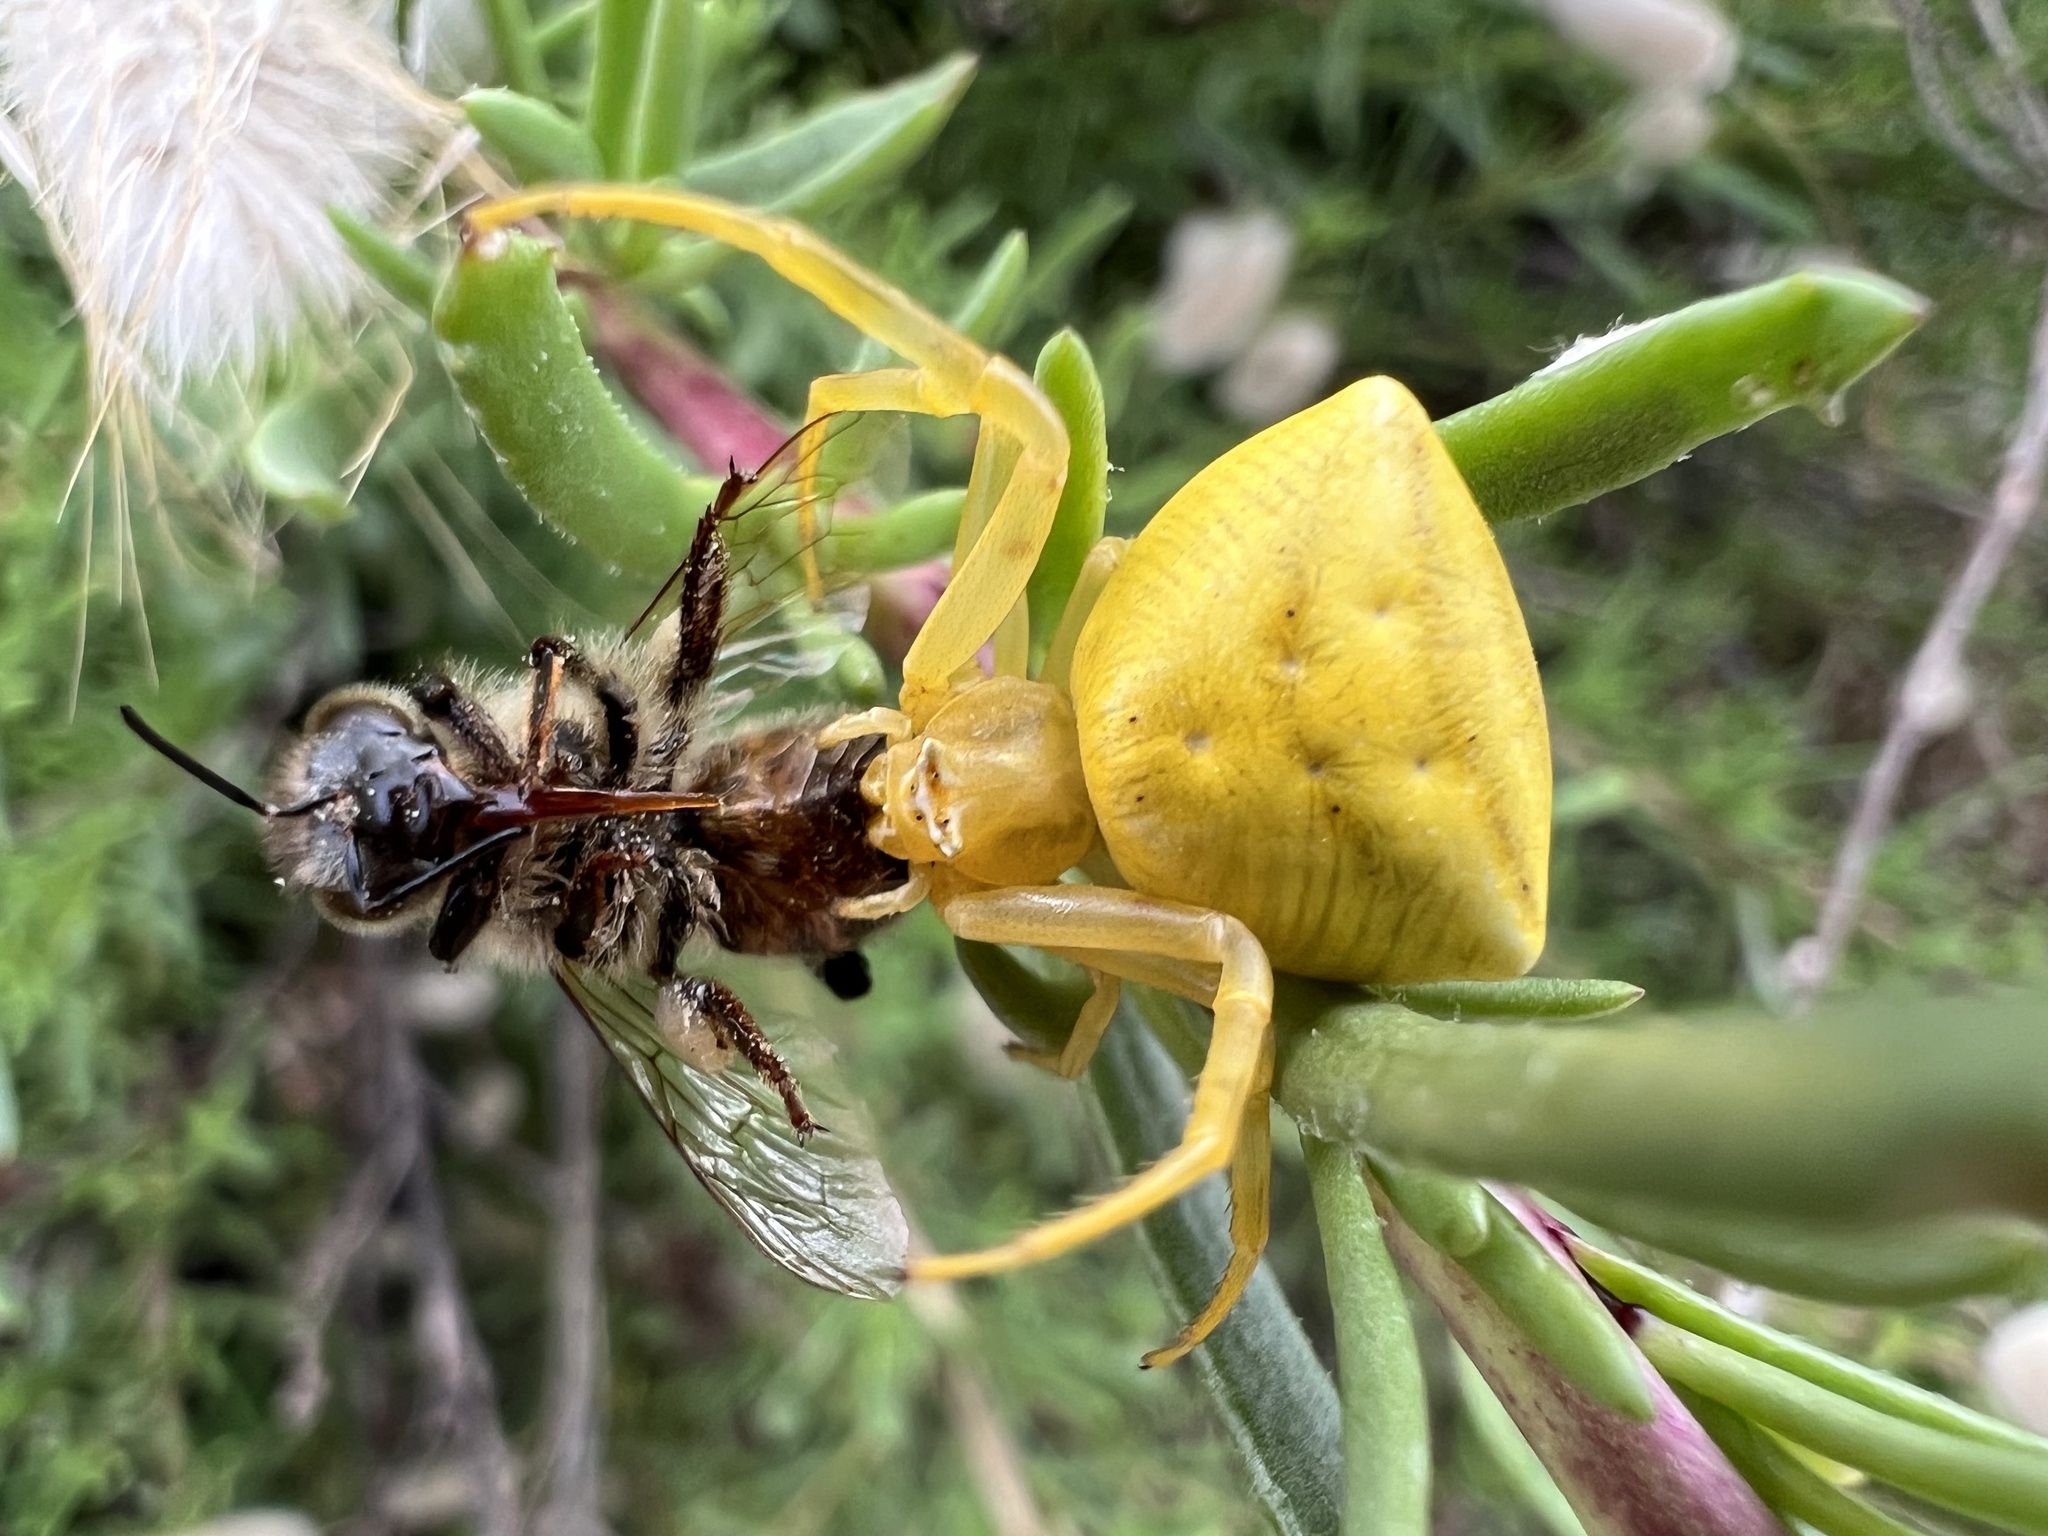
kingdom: Animalia
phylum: Arthropoda
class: Arachnida
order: Araneae
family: Thomisidae
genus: Thomisus
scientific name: Thomisus onustus
